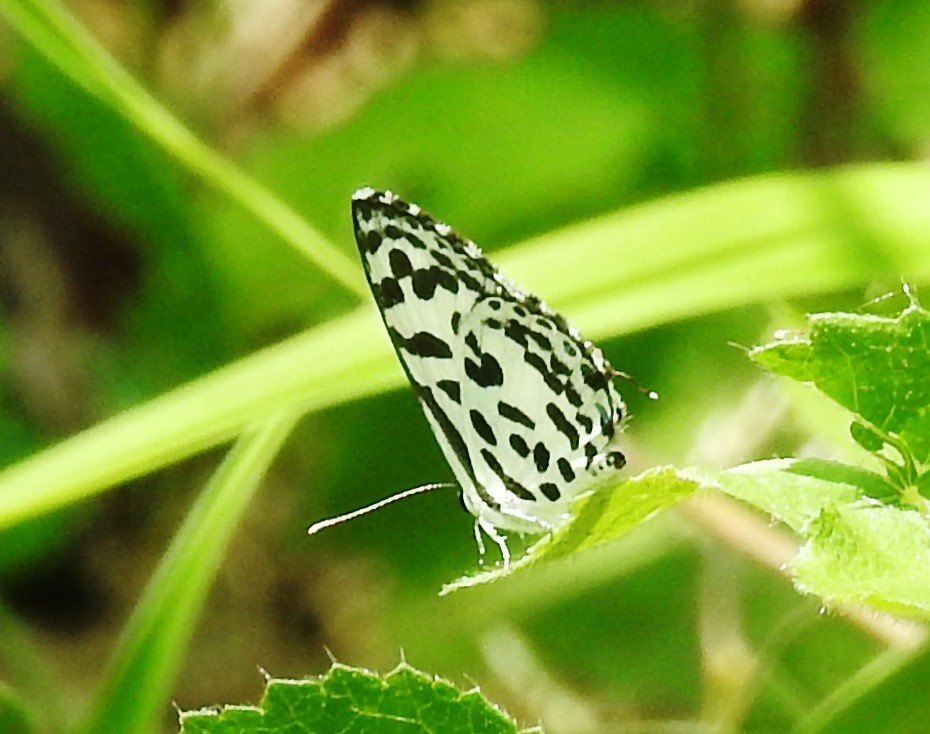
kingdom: Animalia
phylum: Arthropoda
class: Insecta
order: Lepidoptera
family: Lycaenidae
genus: Castalius
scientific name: Castalius rosimon
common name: Common pierrot
